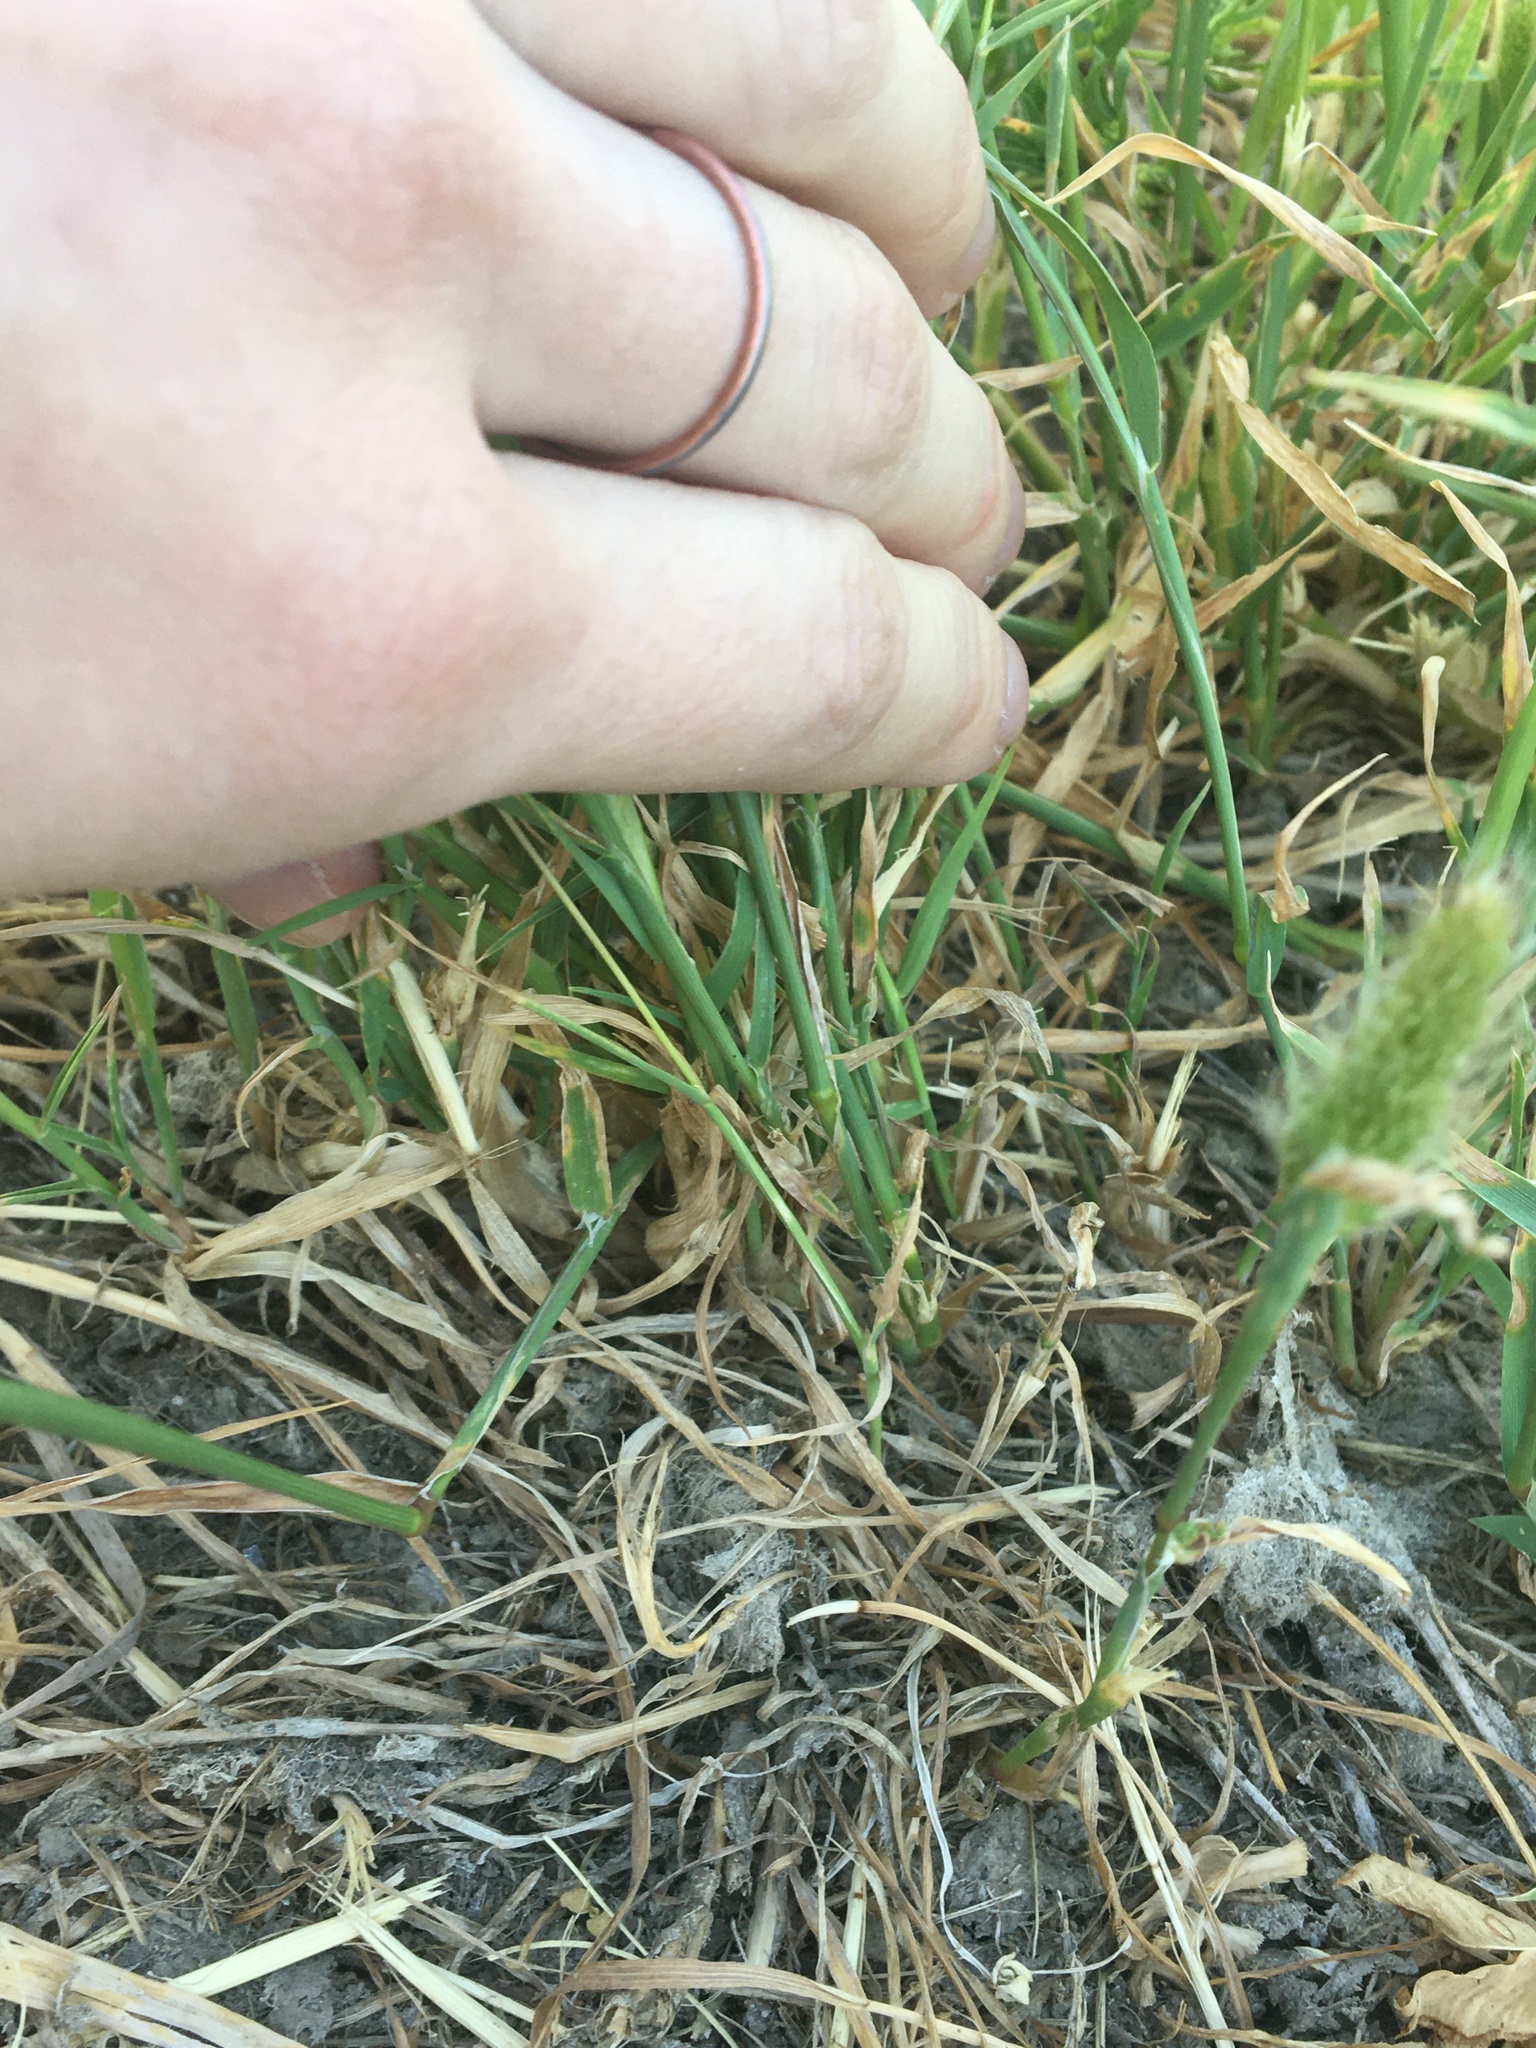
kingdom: Plantae
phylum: Tracheophyta
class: Liliopsida
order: Poales
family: Poaceae
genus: Polypogon
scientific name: Polypogon monspeliensis
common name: Annual rabbitsfoot grass
